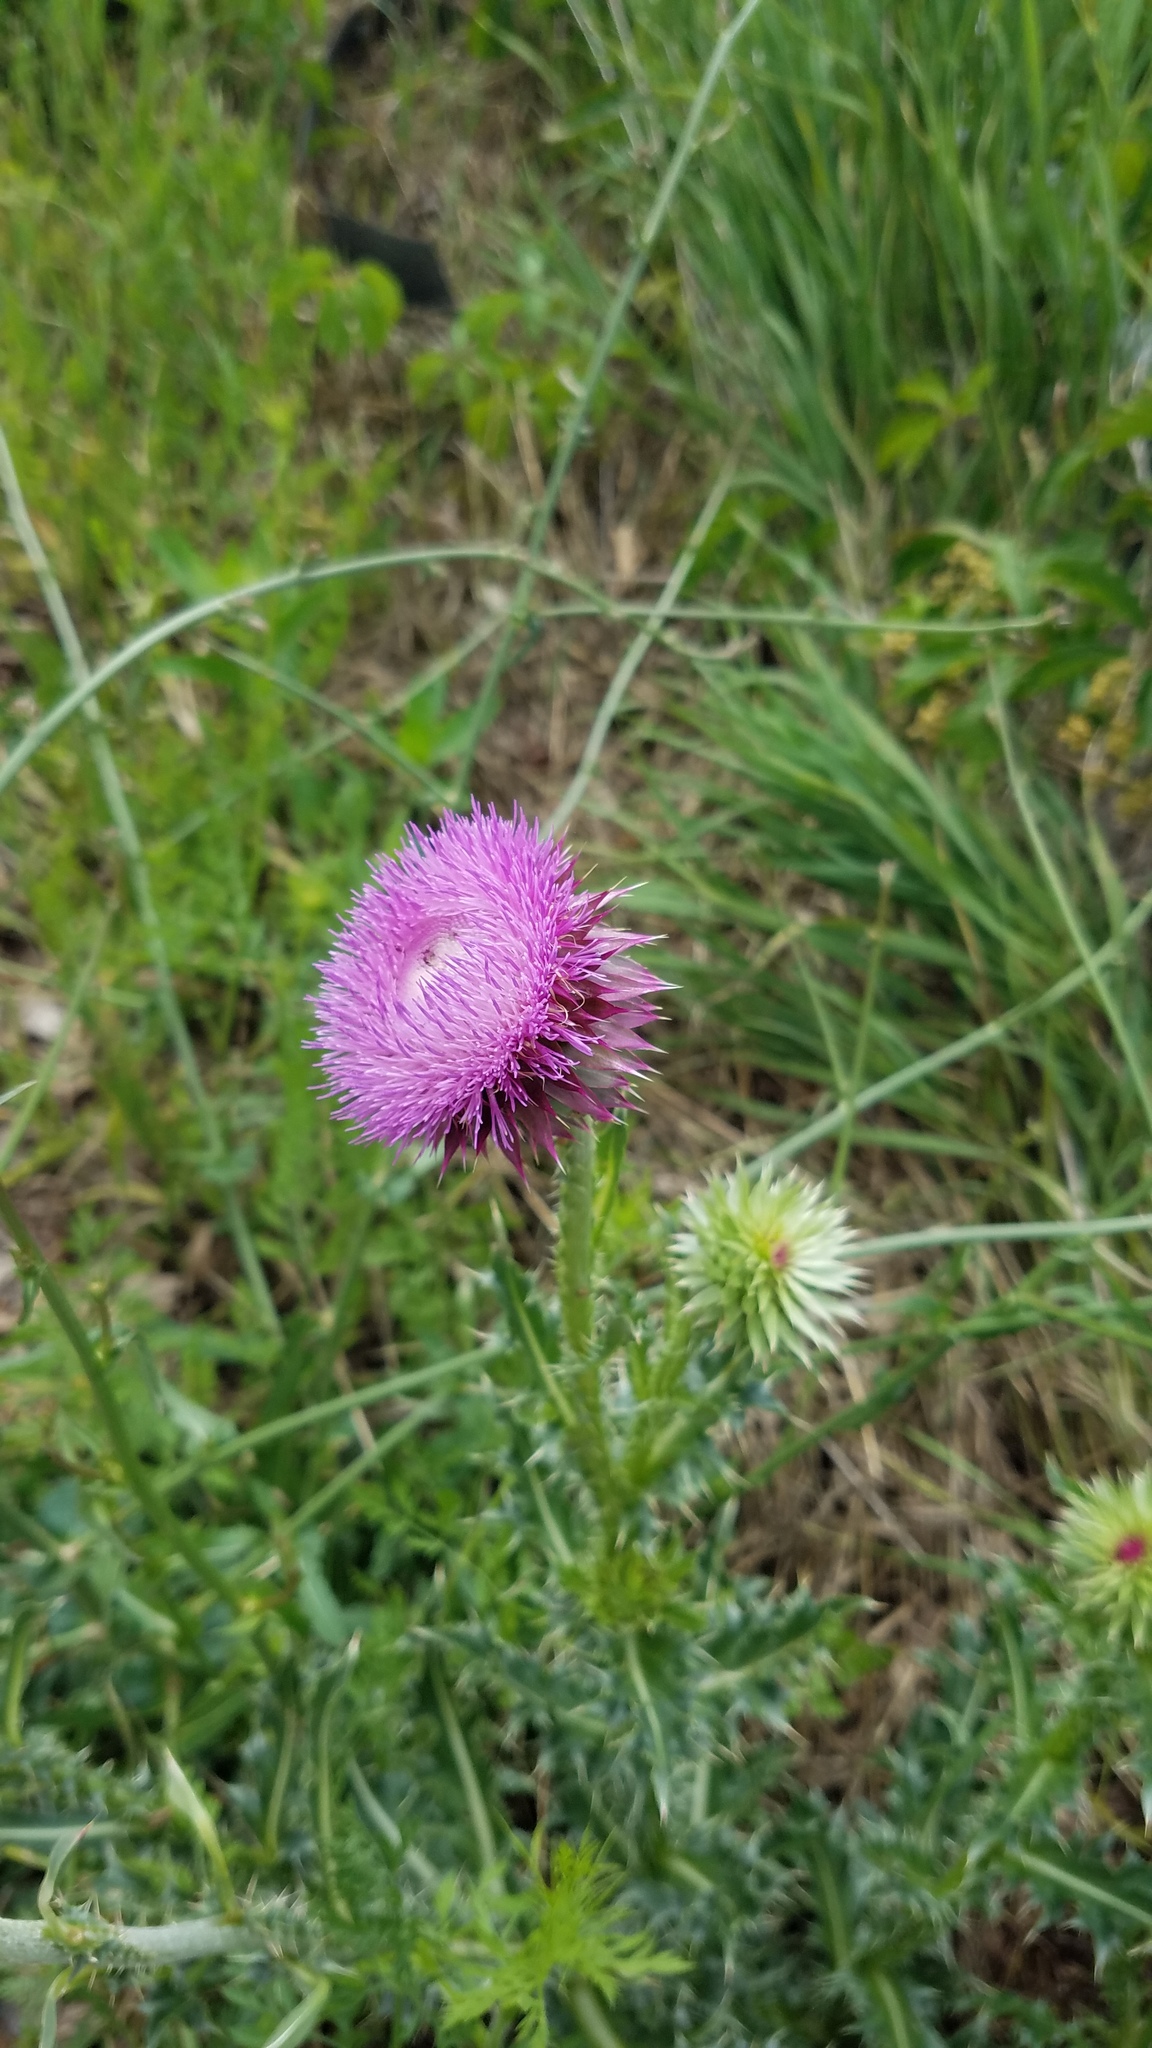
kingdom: Plantae
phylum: Tracheophyta
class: Magnoliopsida
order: Asterales
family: Asteraceae
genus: Carduus
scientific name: Carduus nutans
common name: Musk thistle
